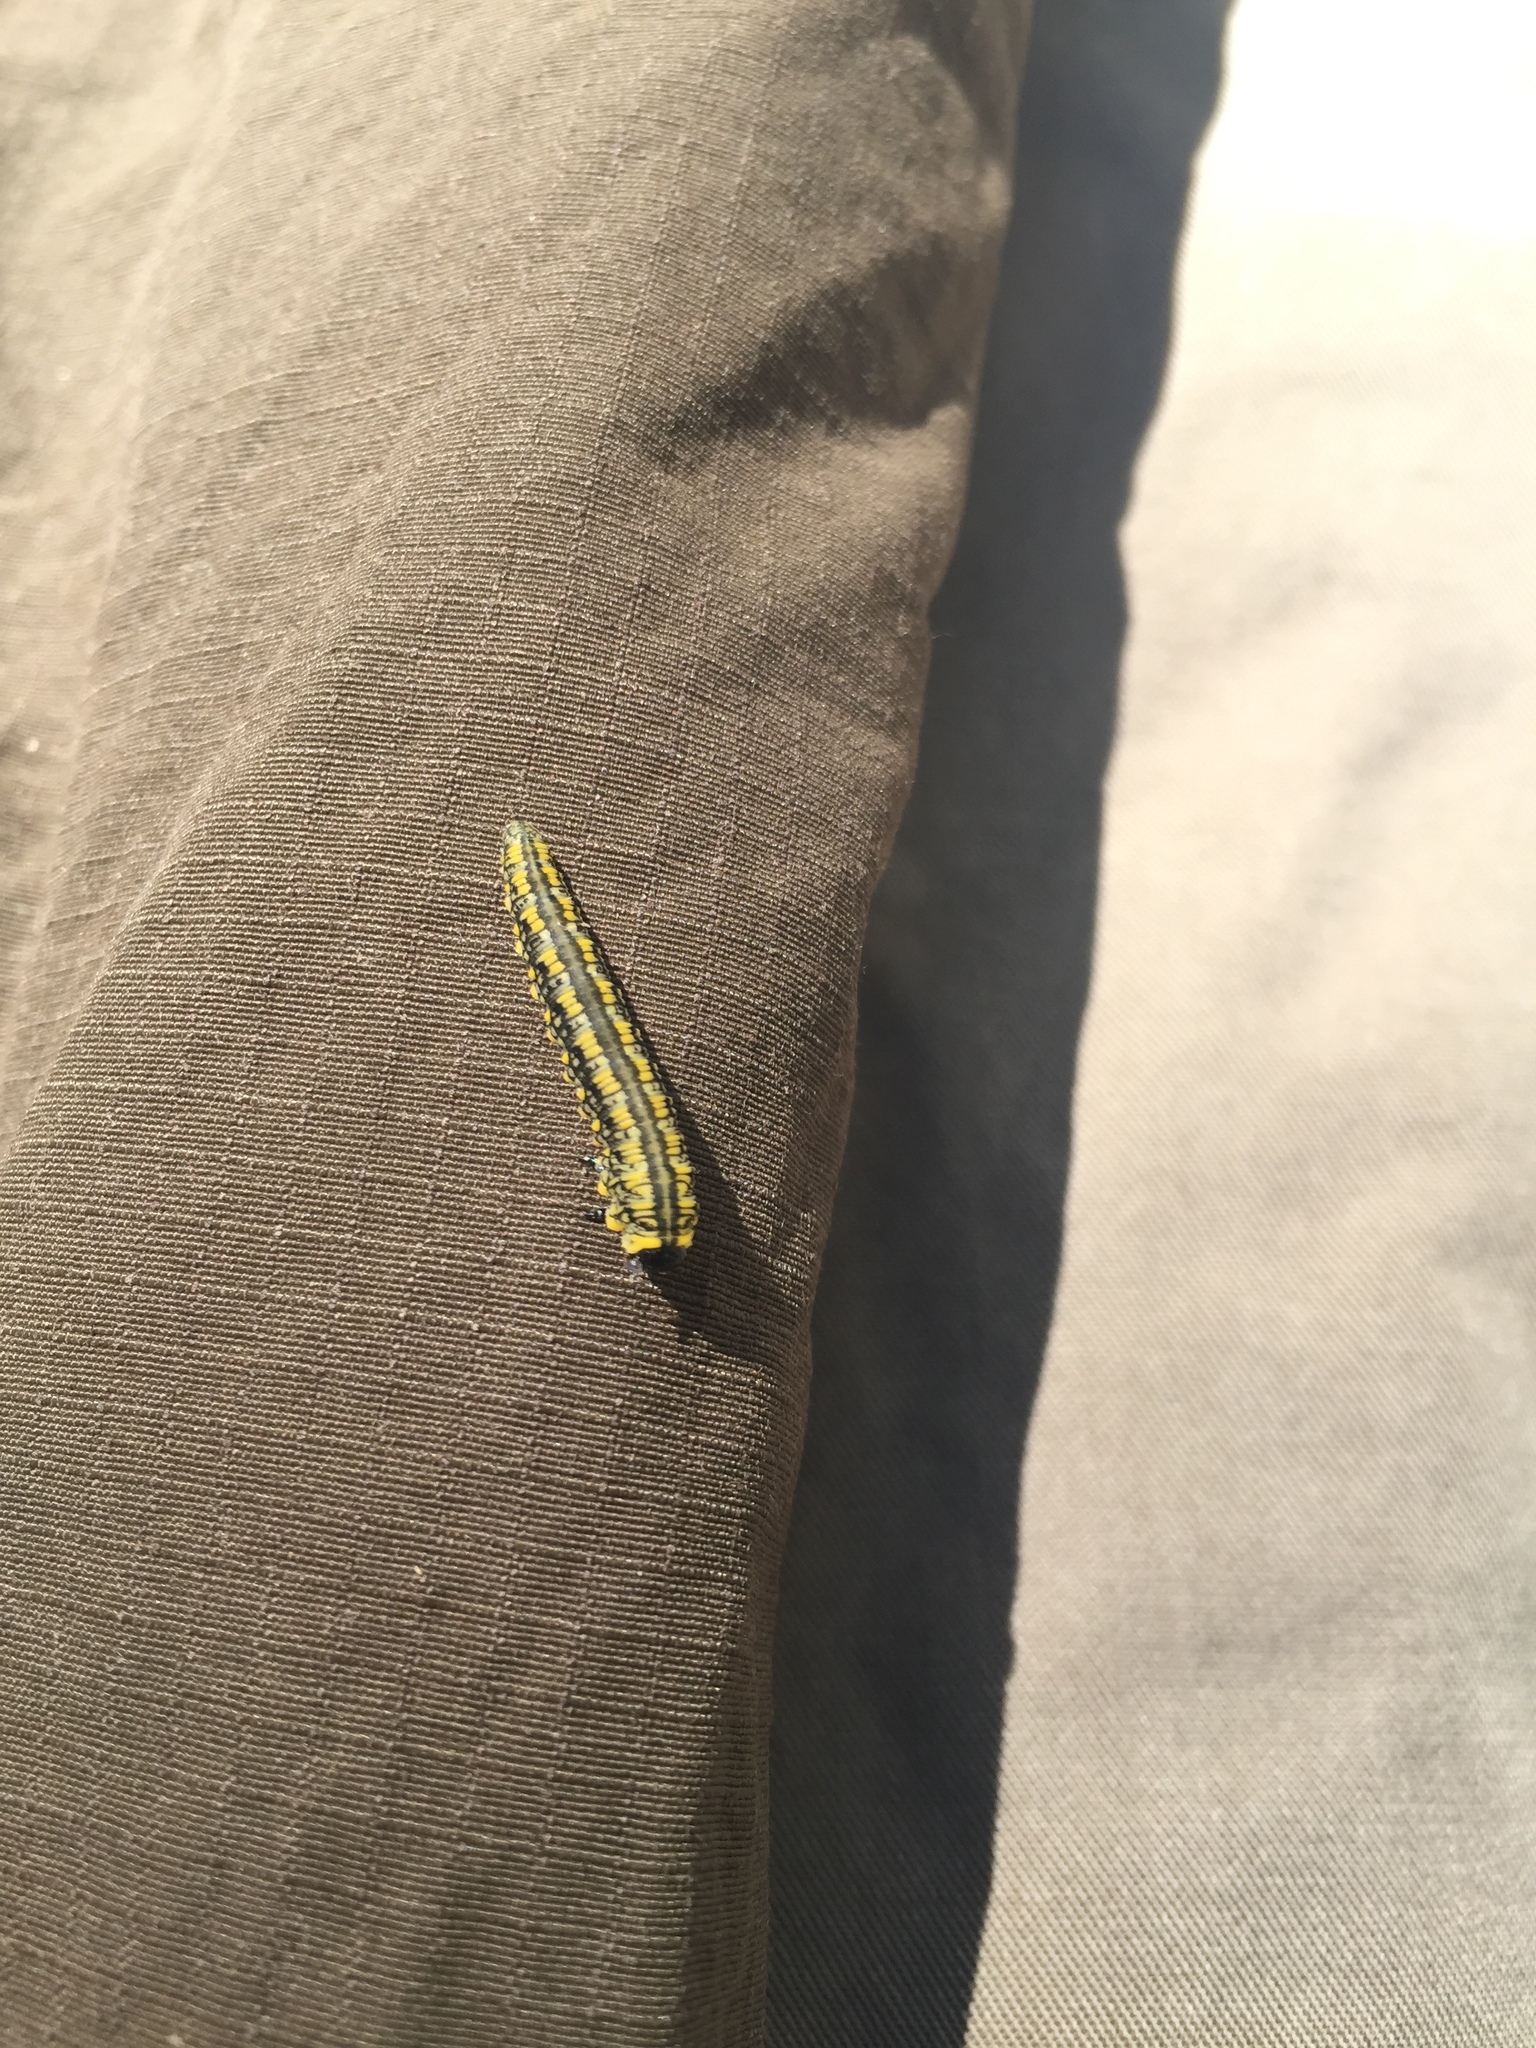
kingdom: Animalia
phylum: Arthropoda
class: Insecta
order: Hymenoptera
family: Diprionidae
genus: Diprion
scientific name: Diprion similis
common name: Pine sawfly
